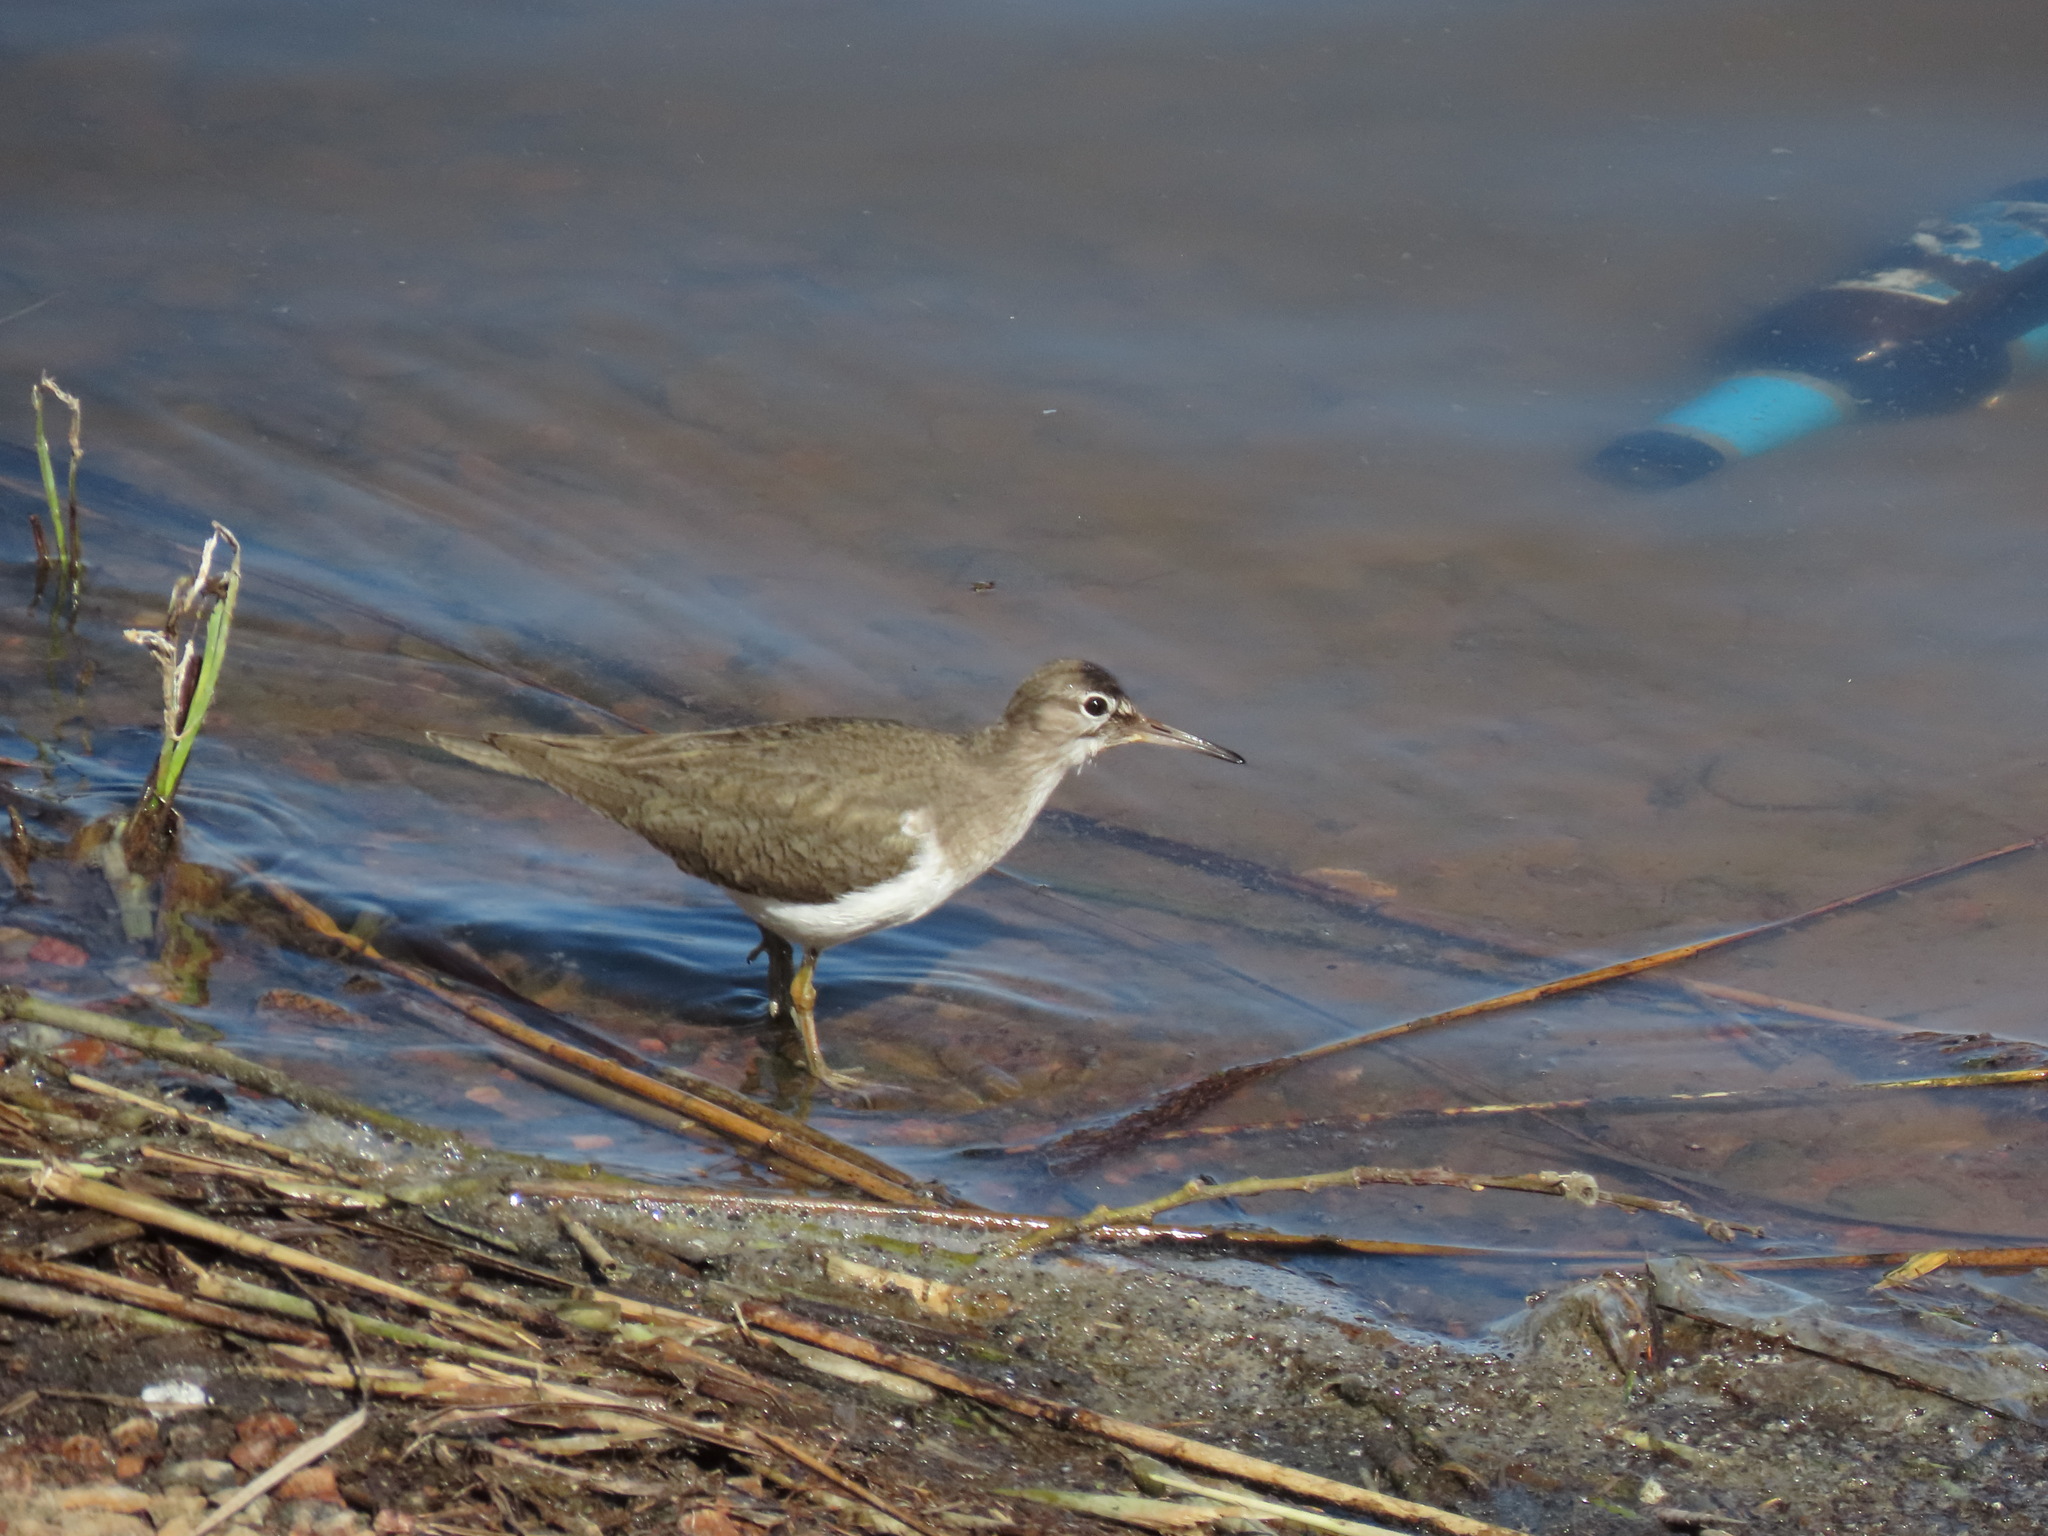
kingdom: Animalia
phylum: Chordata
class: Aves
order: Charadriiformes
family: Scolopacidae
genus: Actitis
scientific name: Actitis hypoleucos
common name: Common sandpiper
